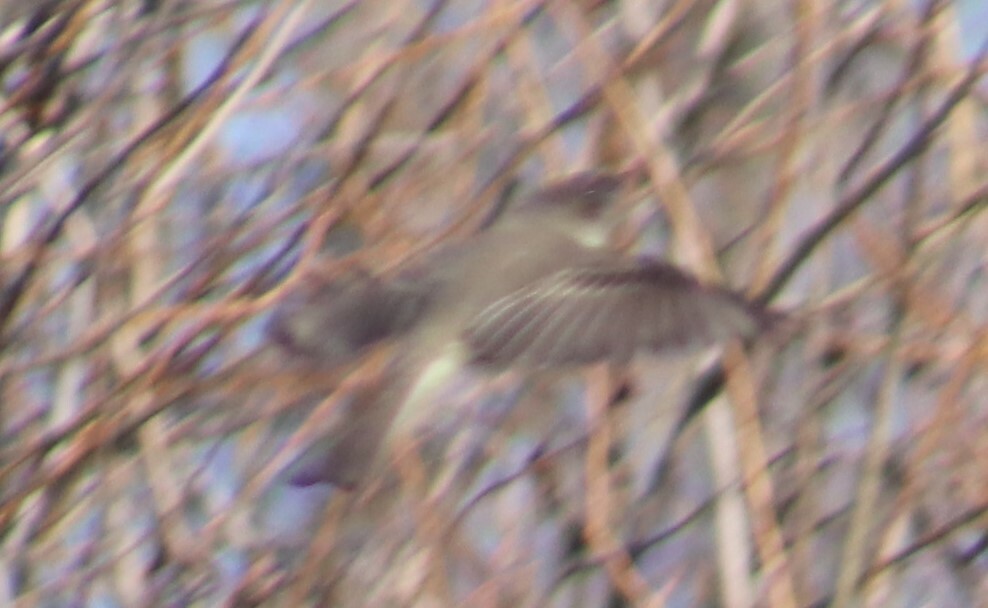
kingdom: Animalia
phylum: Chordata
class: Aves
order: Passeriformes
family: Tyrannidae
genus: Sayornis
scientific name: Sayornis phoebe
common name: Eastern phoebe
